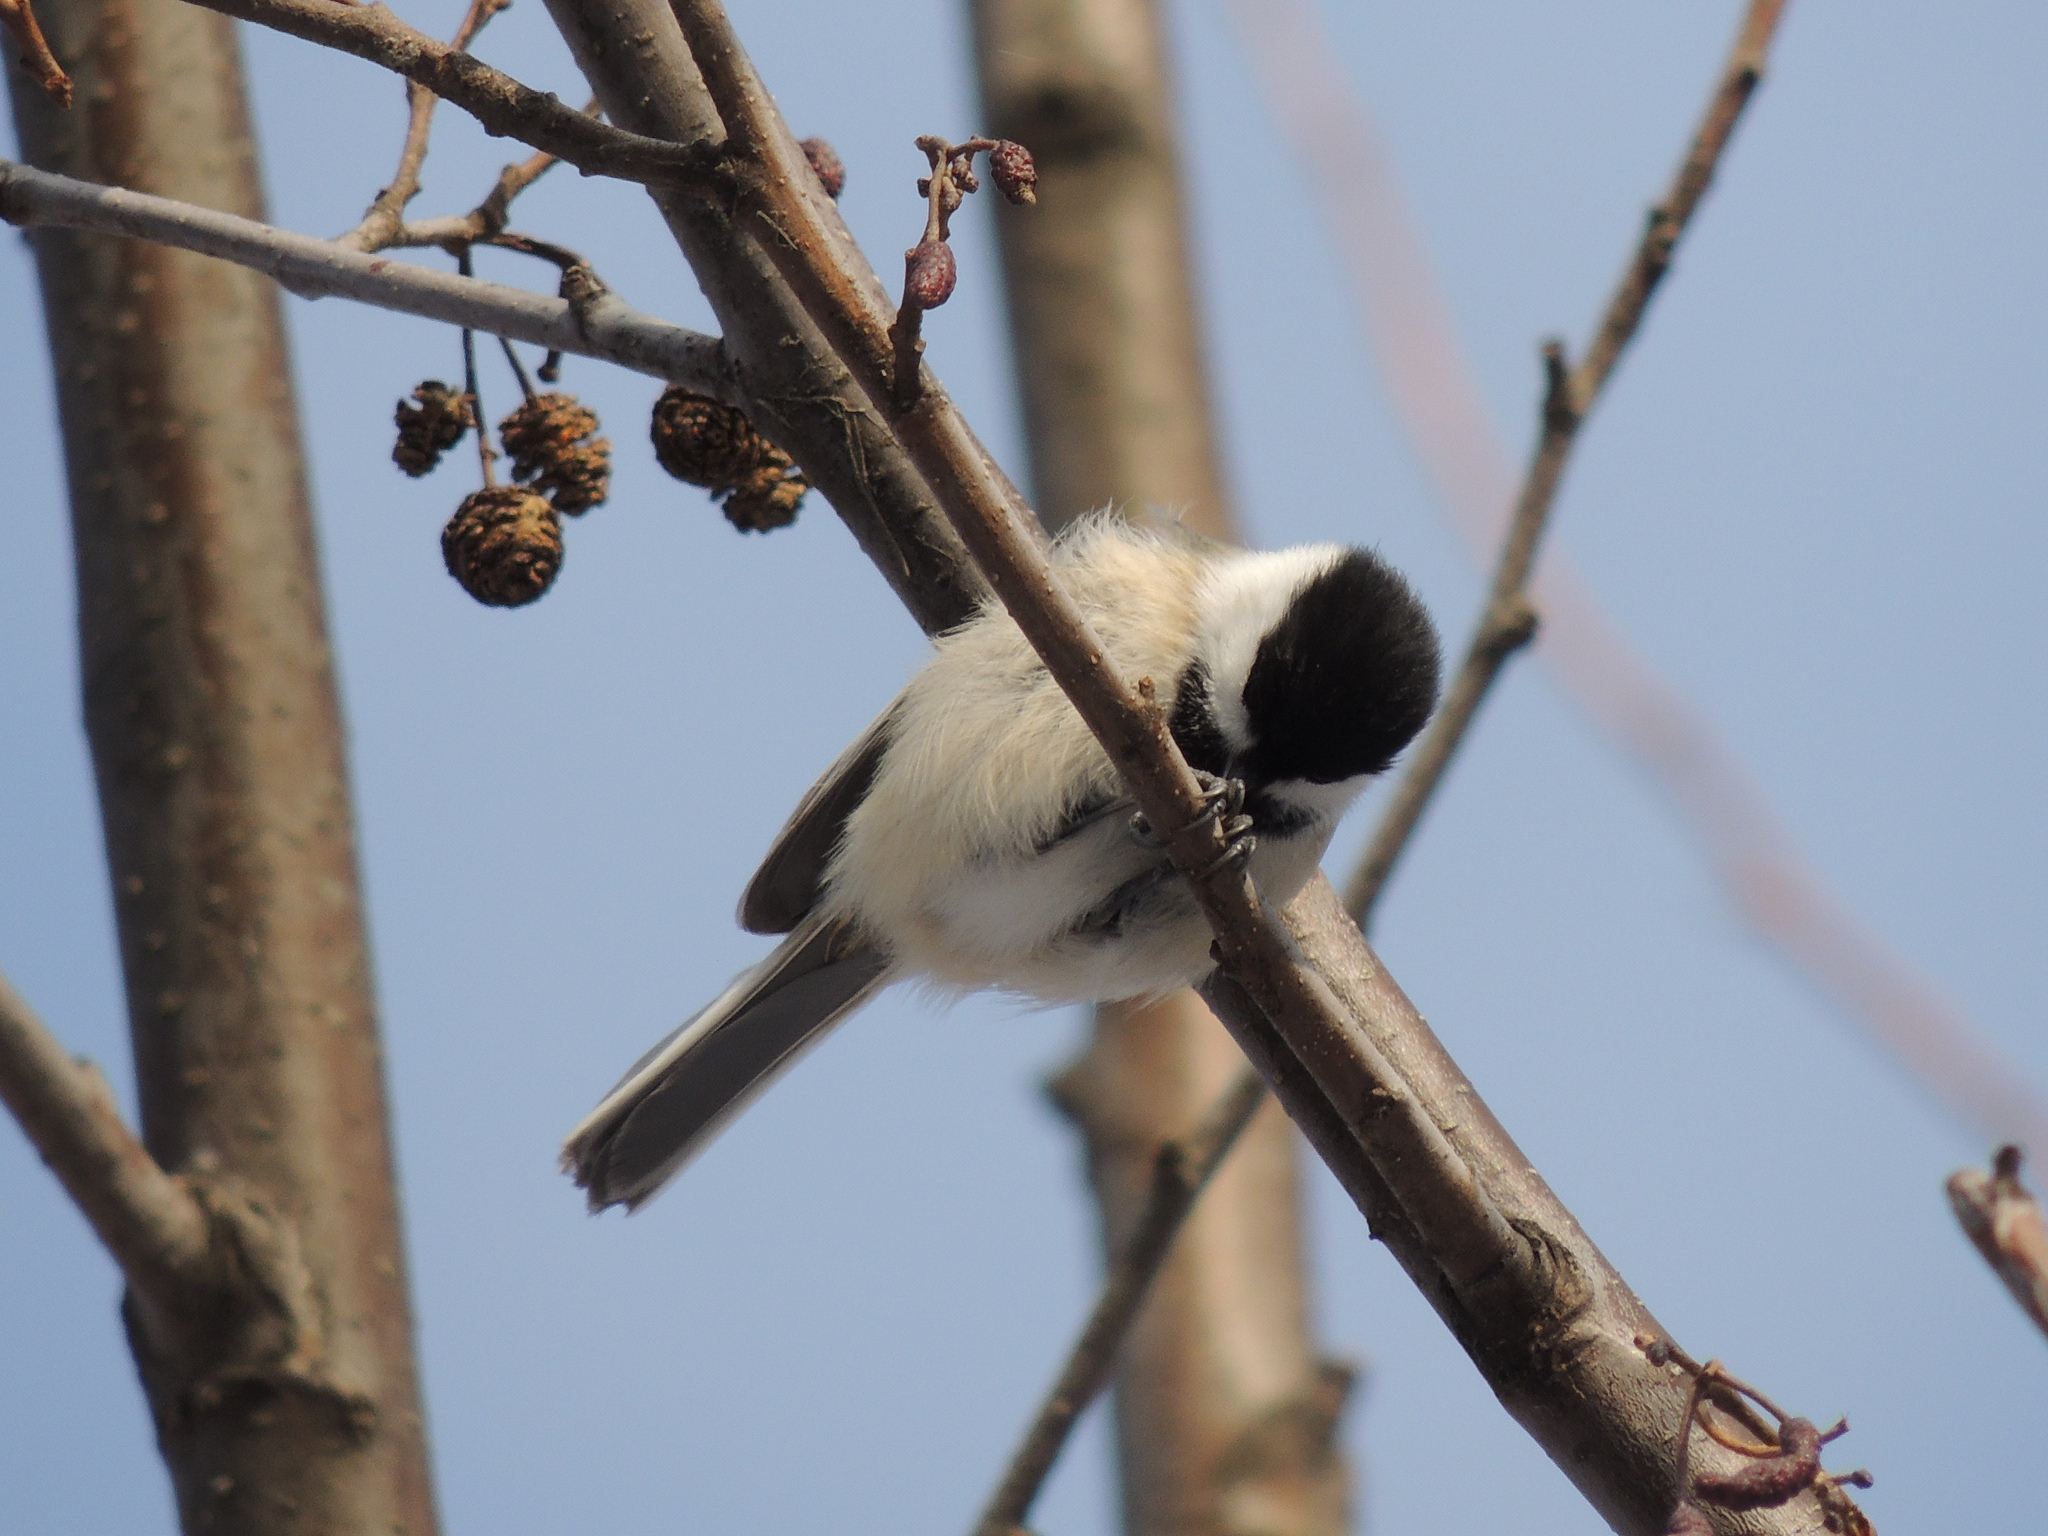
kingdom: Animalia
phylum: Chordata
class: Aves
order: Passeriformes
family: Paridae
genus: Poecile
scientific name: Poecile atricapillus
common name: Black-capped chickadee
